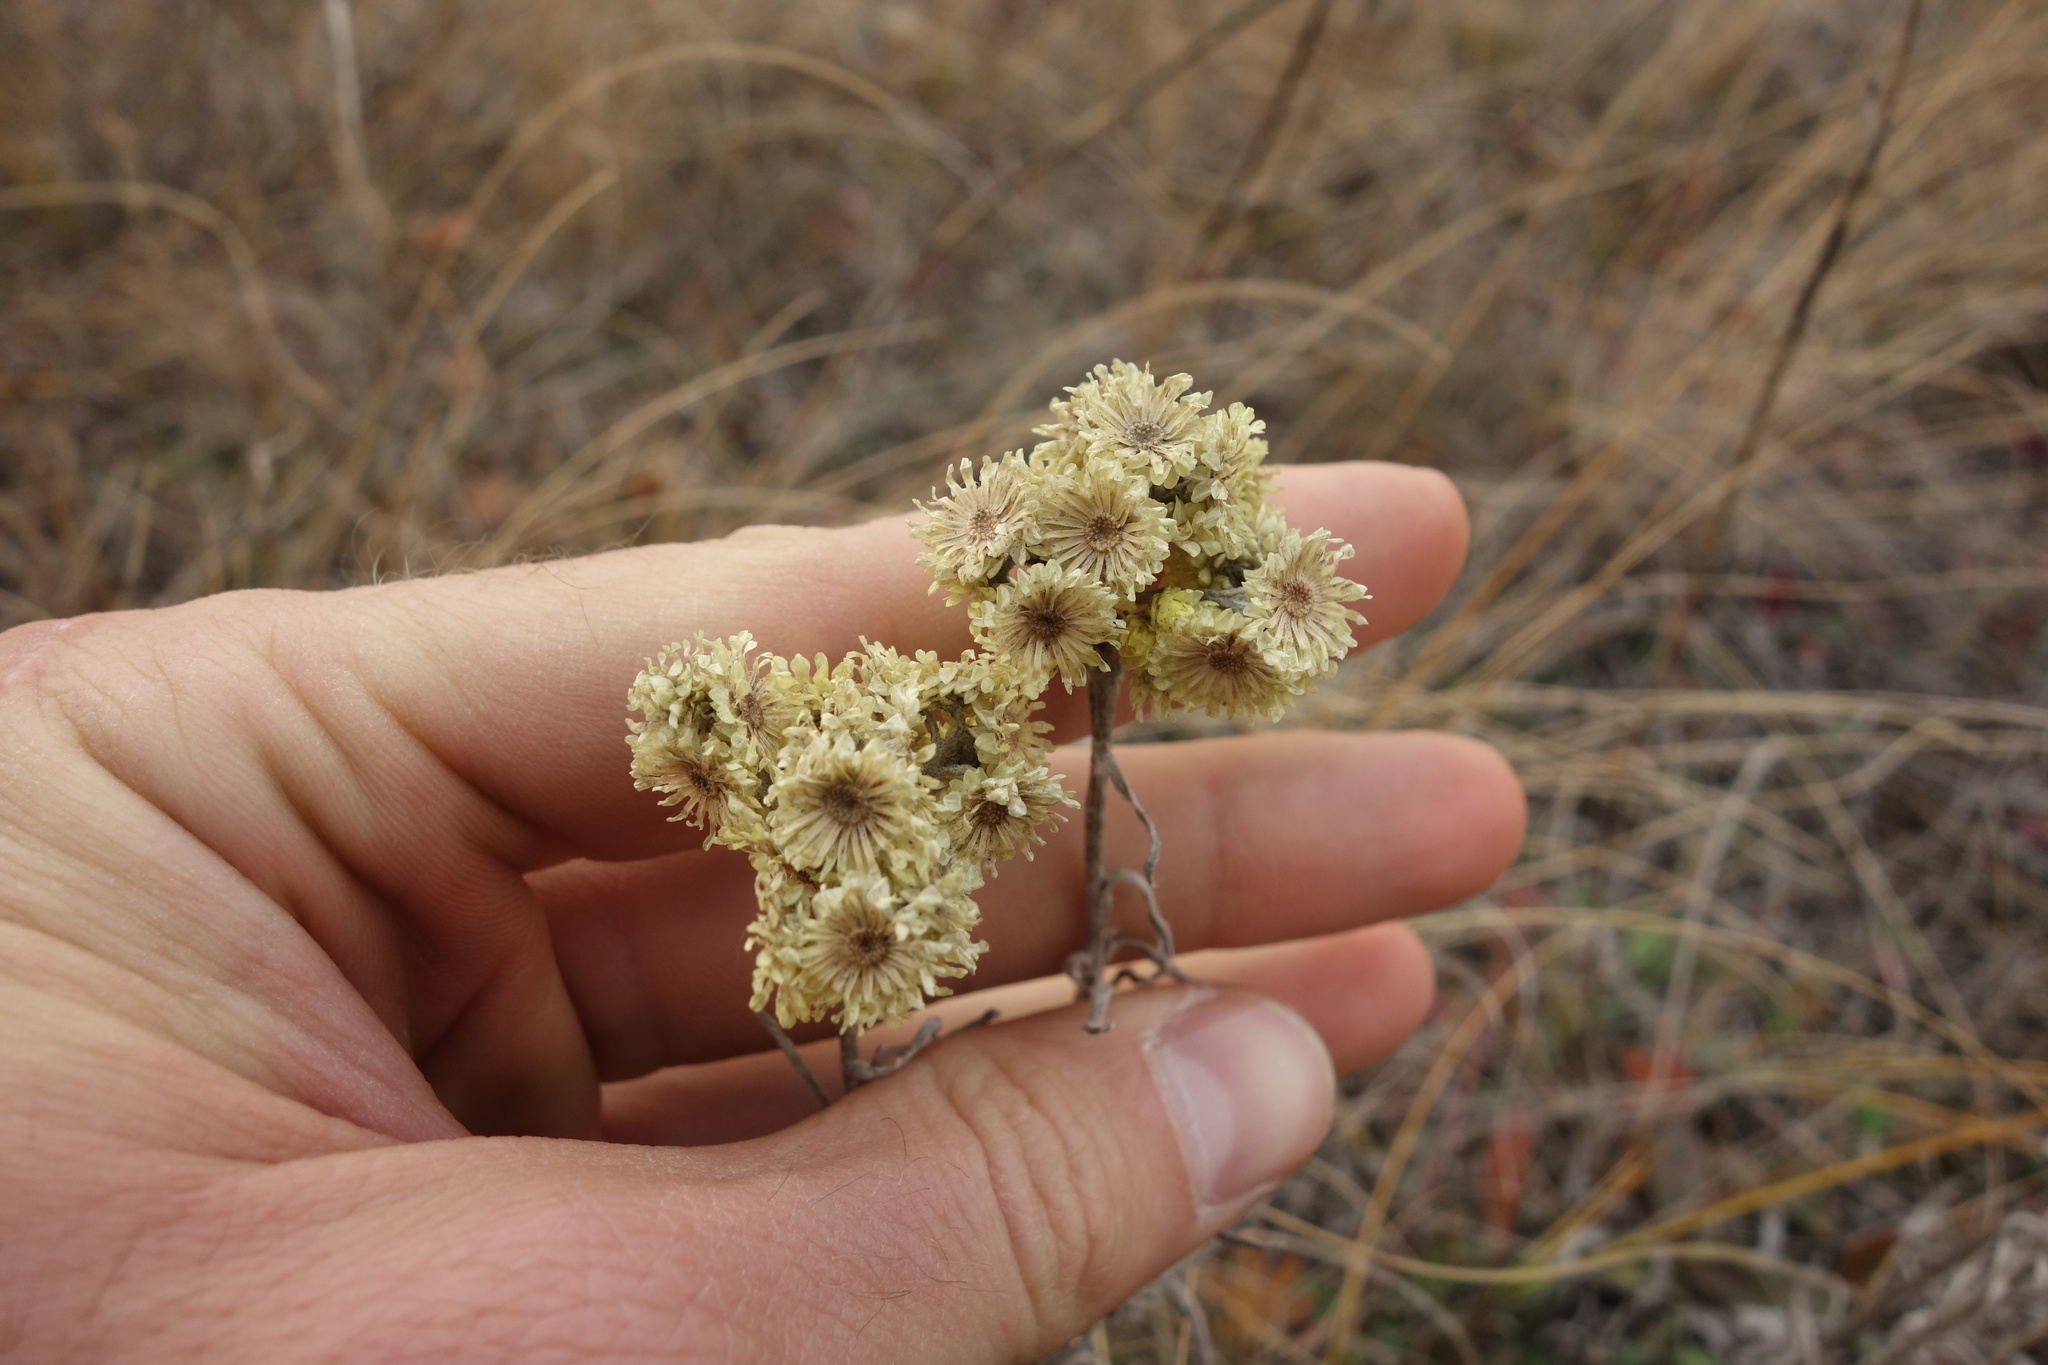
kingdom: Plantae
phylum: Tracheophyta
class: Magnoliopsida
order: Asterales
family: Asteraceae
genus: Helichrysum
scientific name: Helichrysum arenarium
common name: Strawflower
